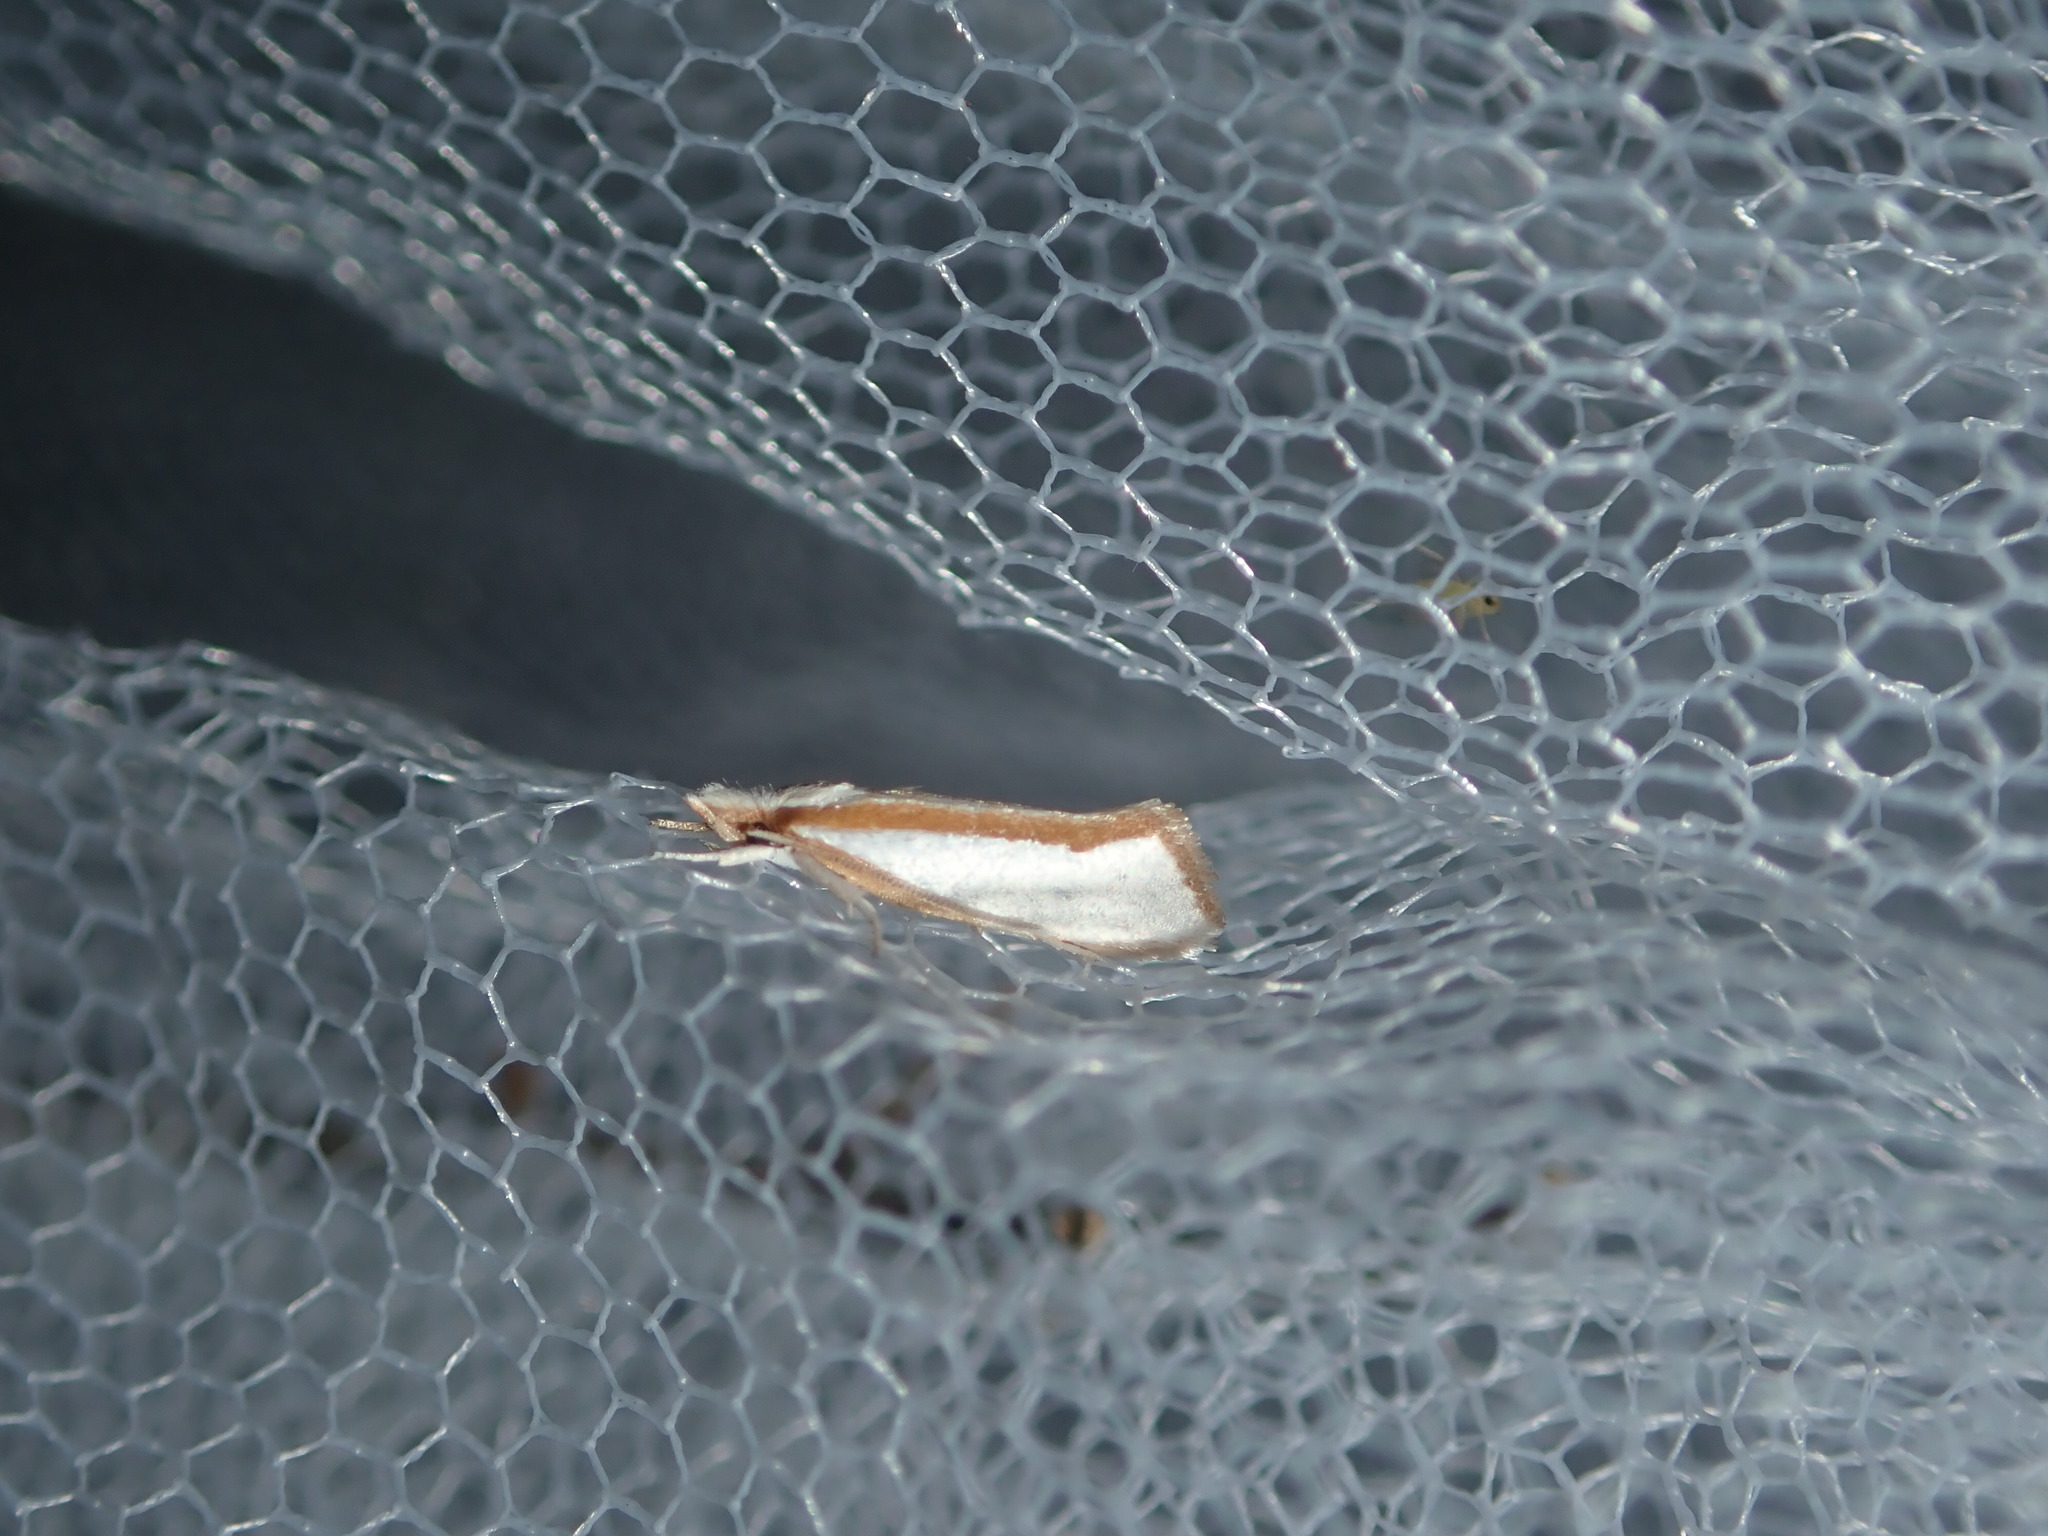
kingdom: Animalia
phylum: Arthropoda
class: Insecta
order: Lepidoptera
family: Depressariidae
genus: Thudaca
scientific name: Thudaca circumdatella
